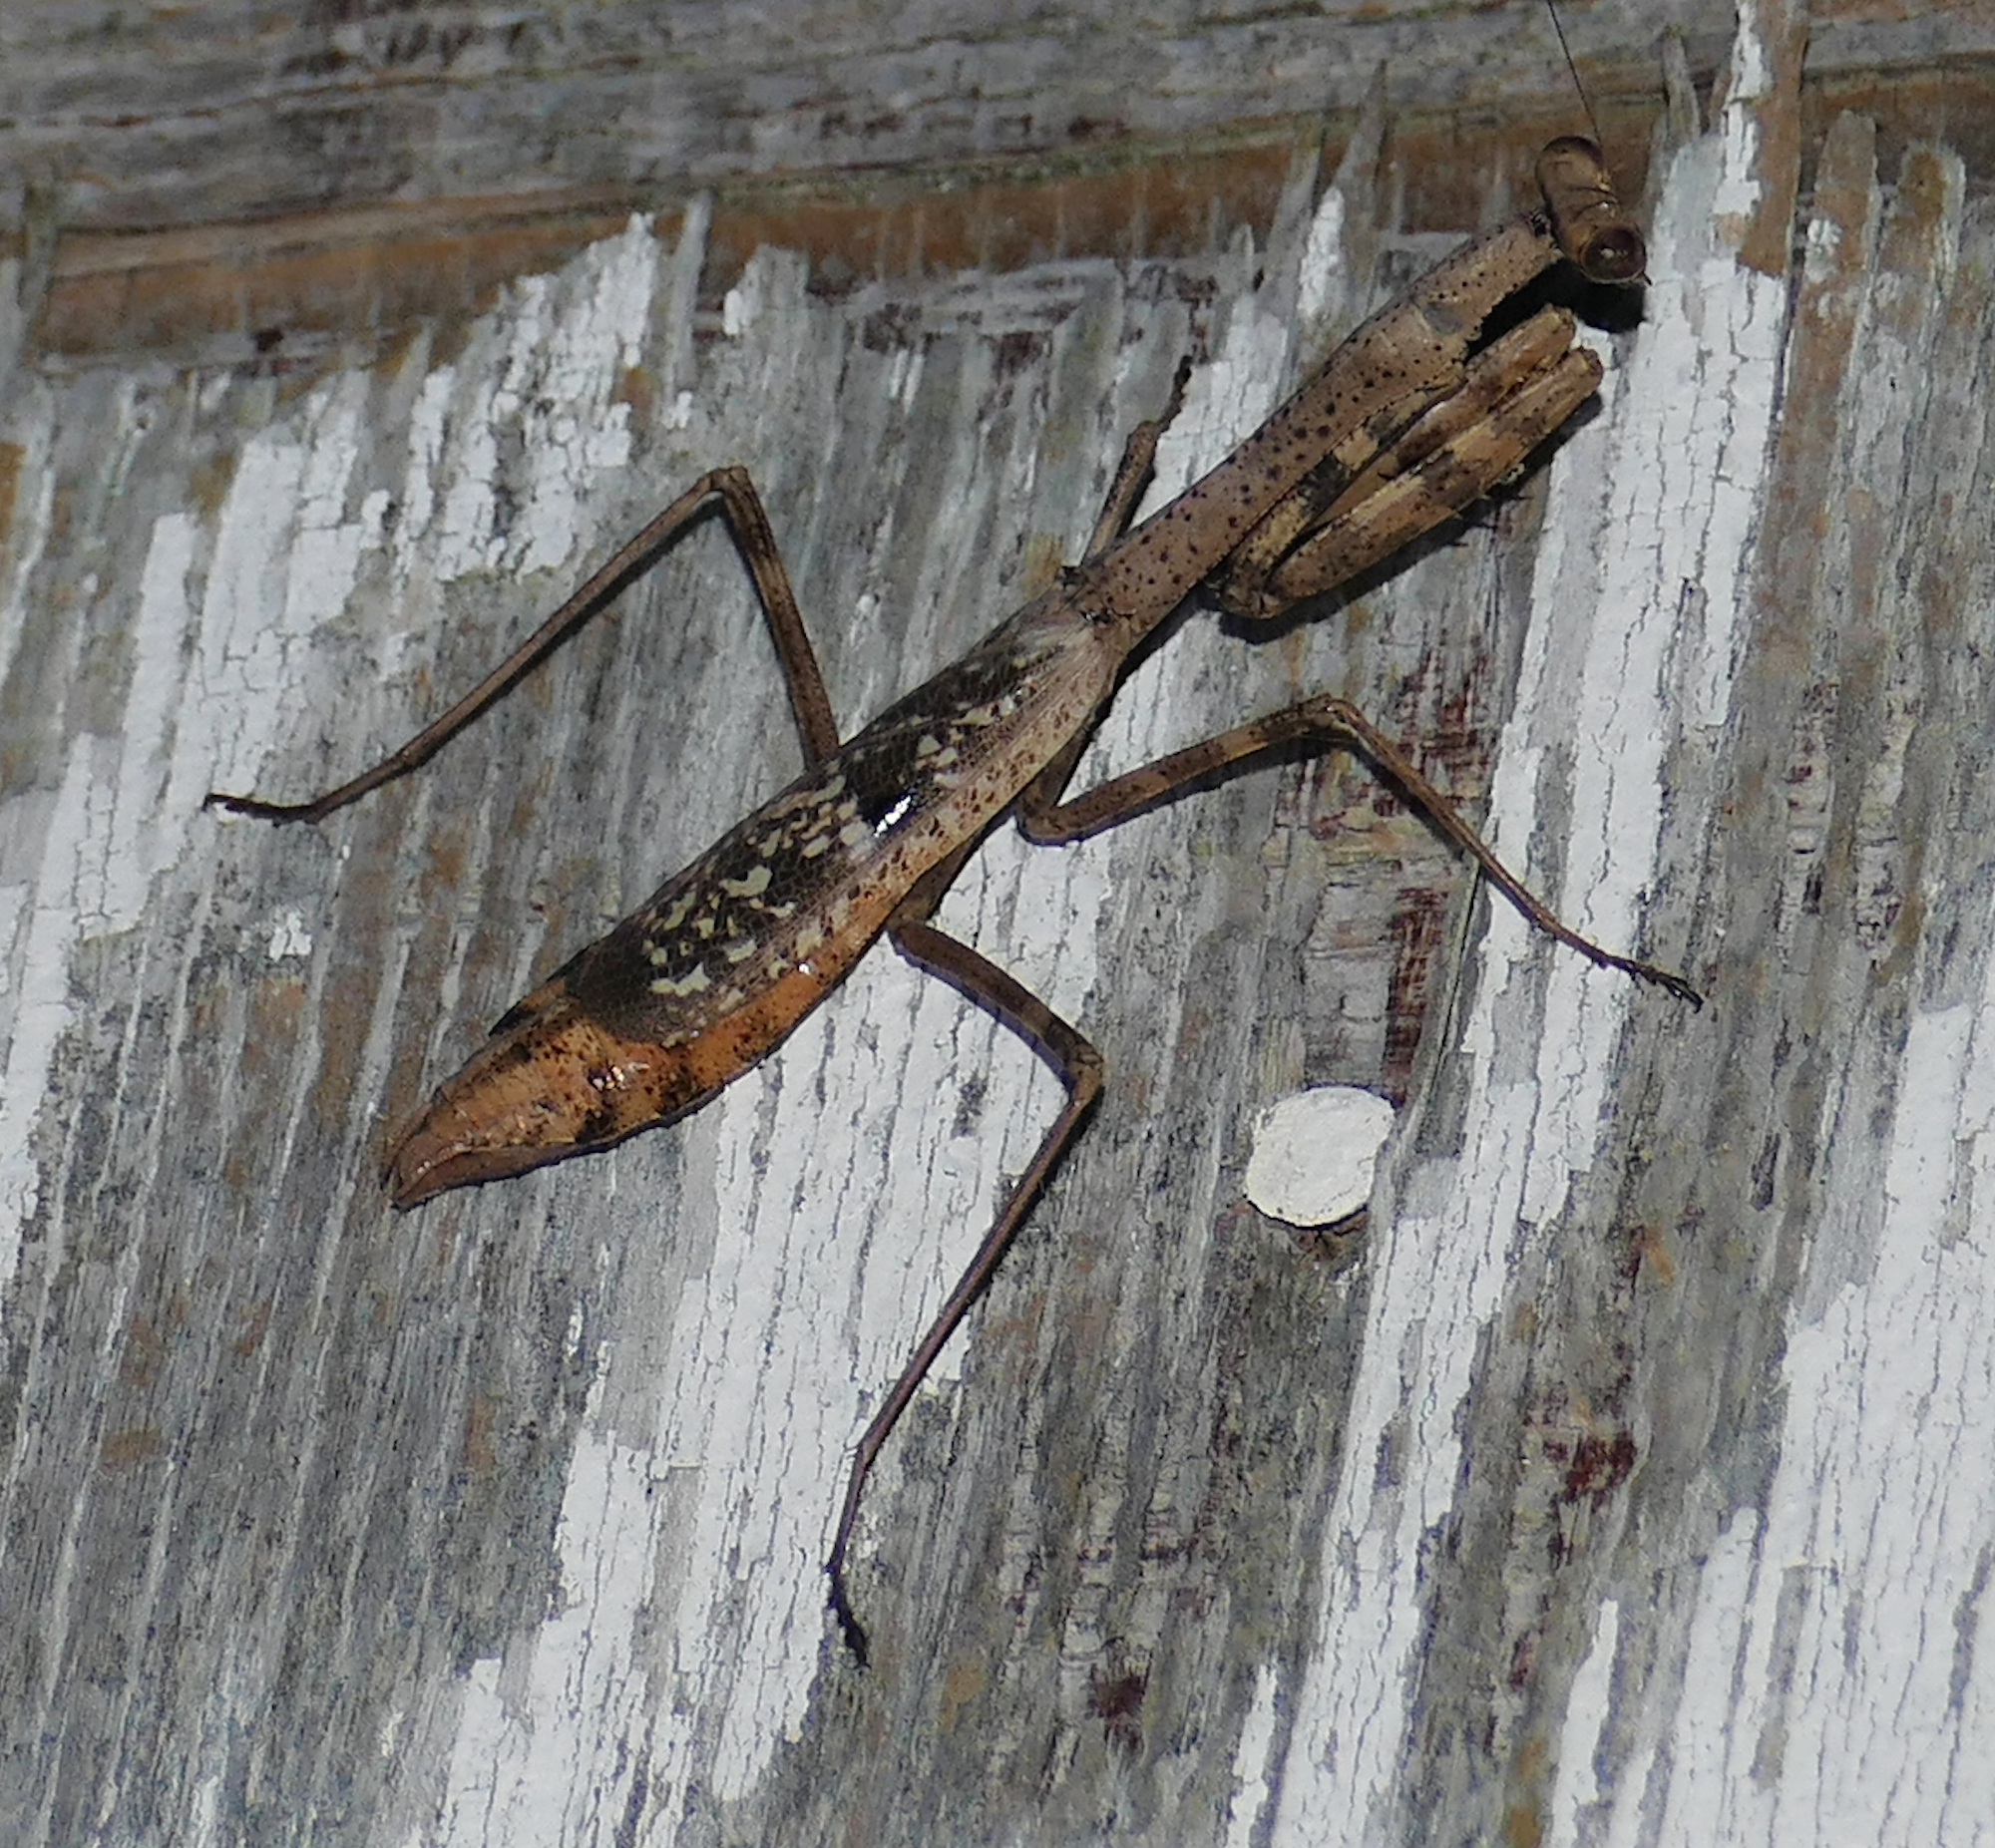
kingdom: Animalia
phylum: Arthropoda
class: Insecta
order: Mantodea
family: Mantidae
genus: Stagmomantis
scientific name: Stagmomantis carolina
